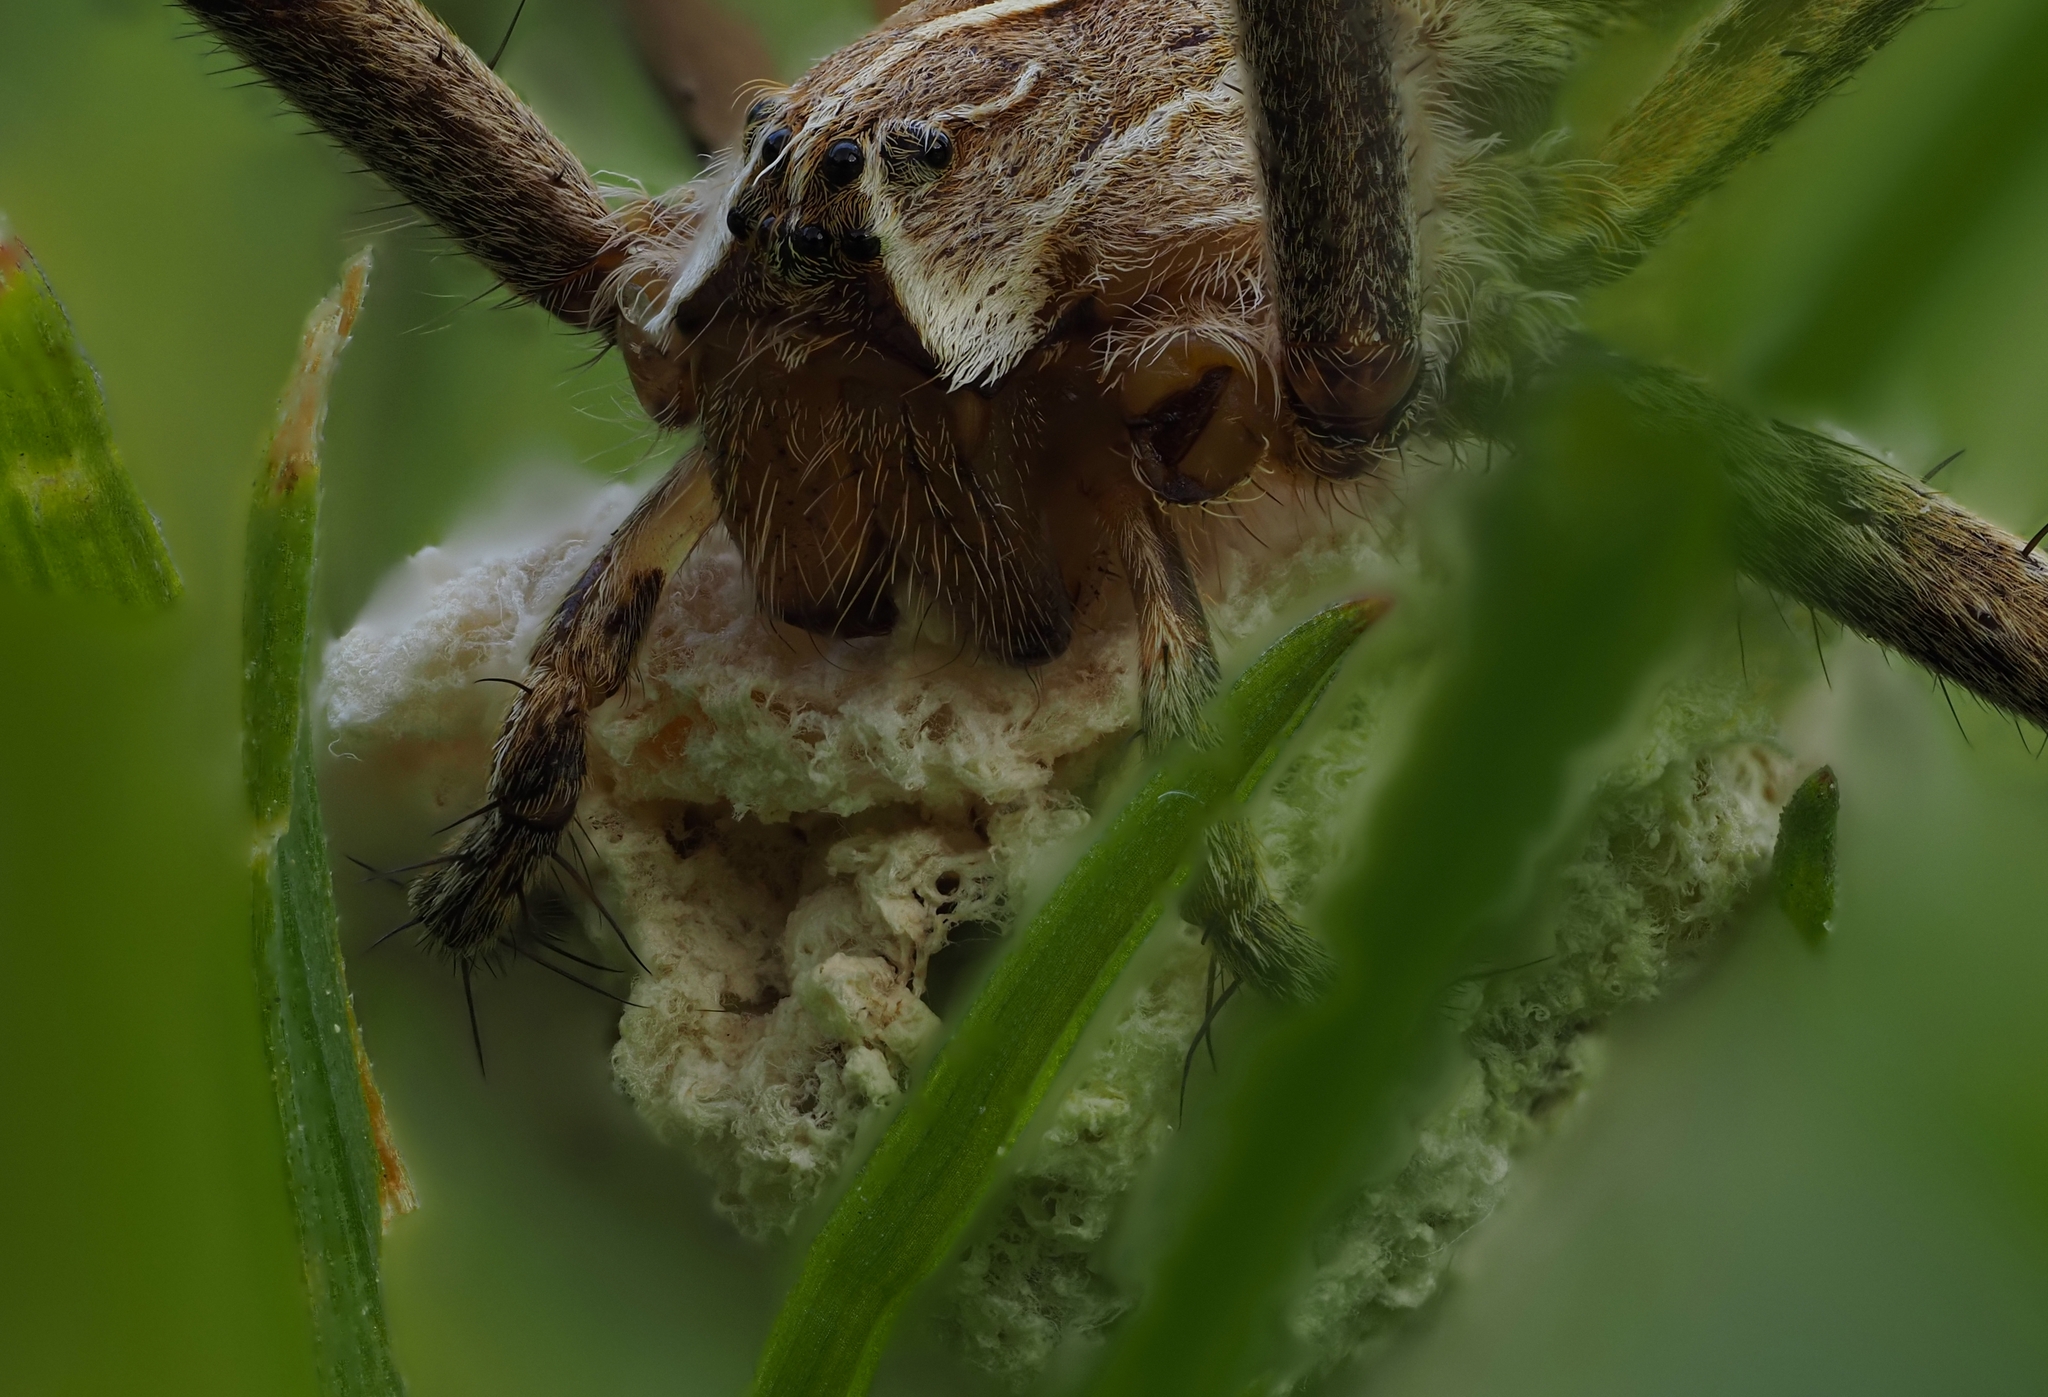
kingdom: Animalia
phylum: Arthropoda
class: Arachnida
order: Araneae
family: Pisauridae
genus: Pisaura
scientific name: Pisaura mirabilis
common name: Tent spider
